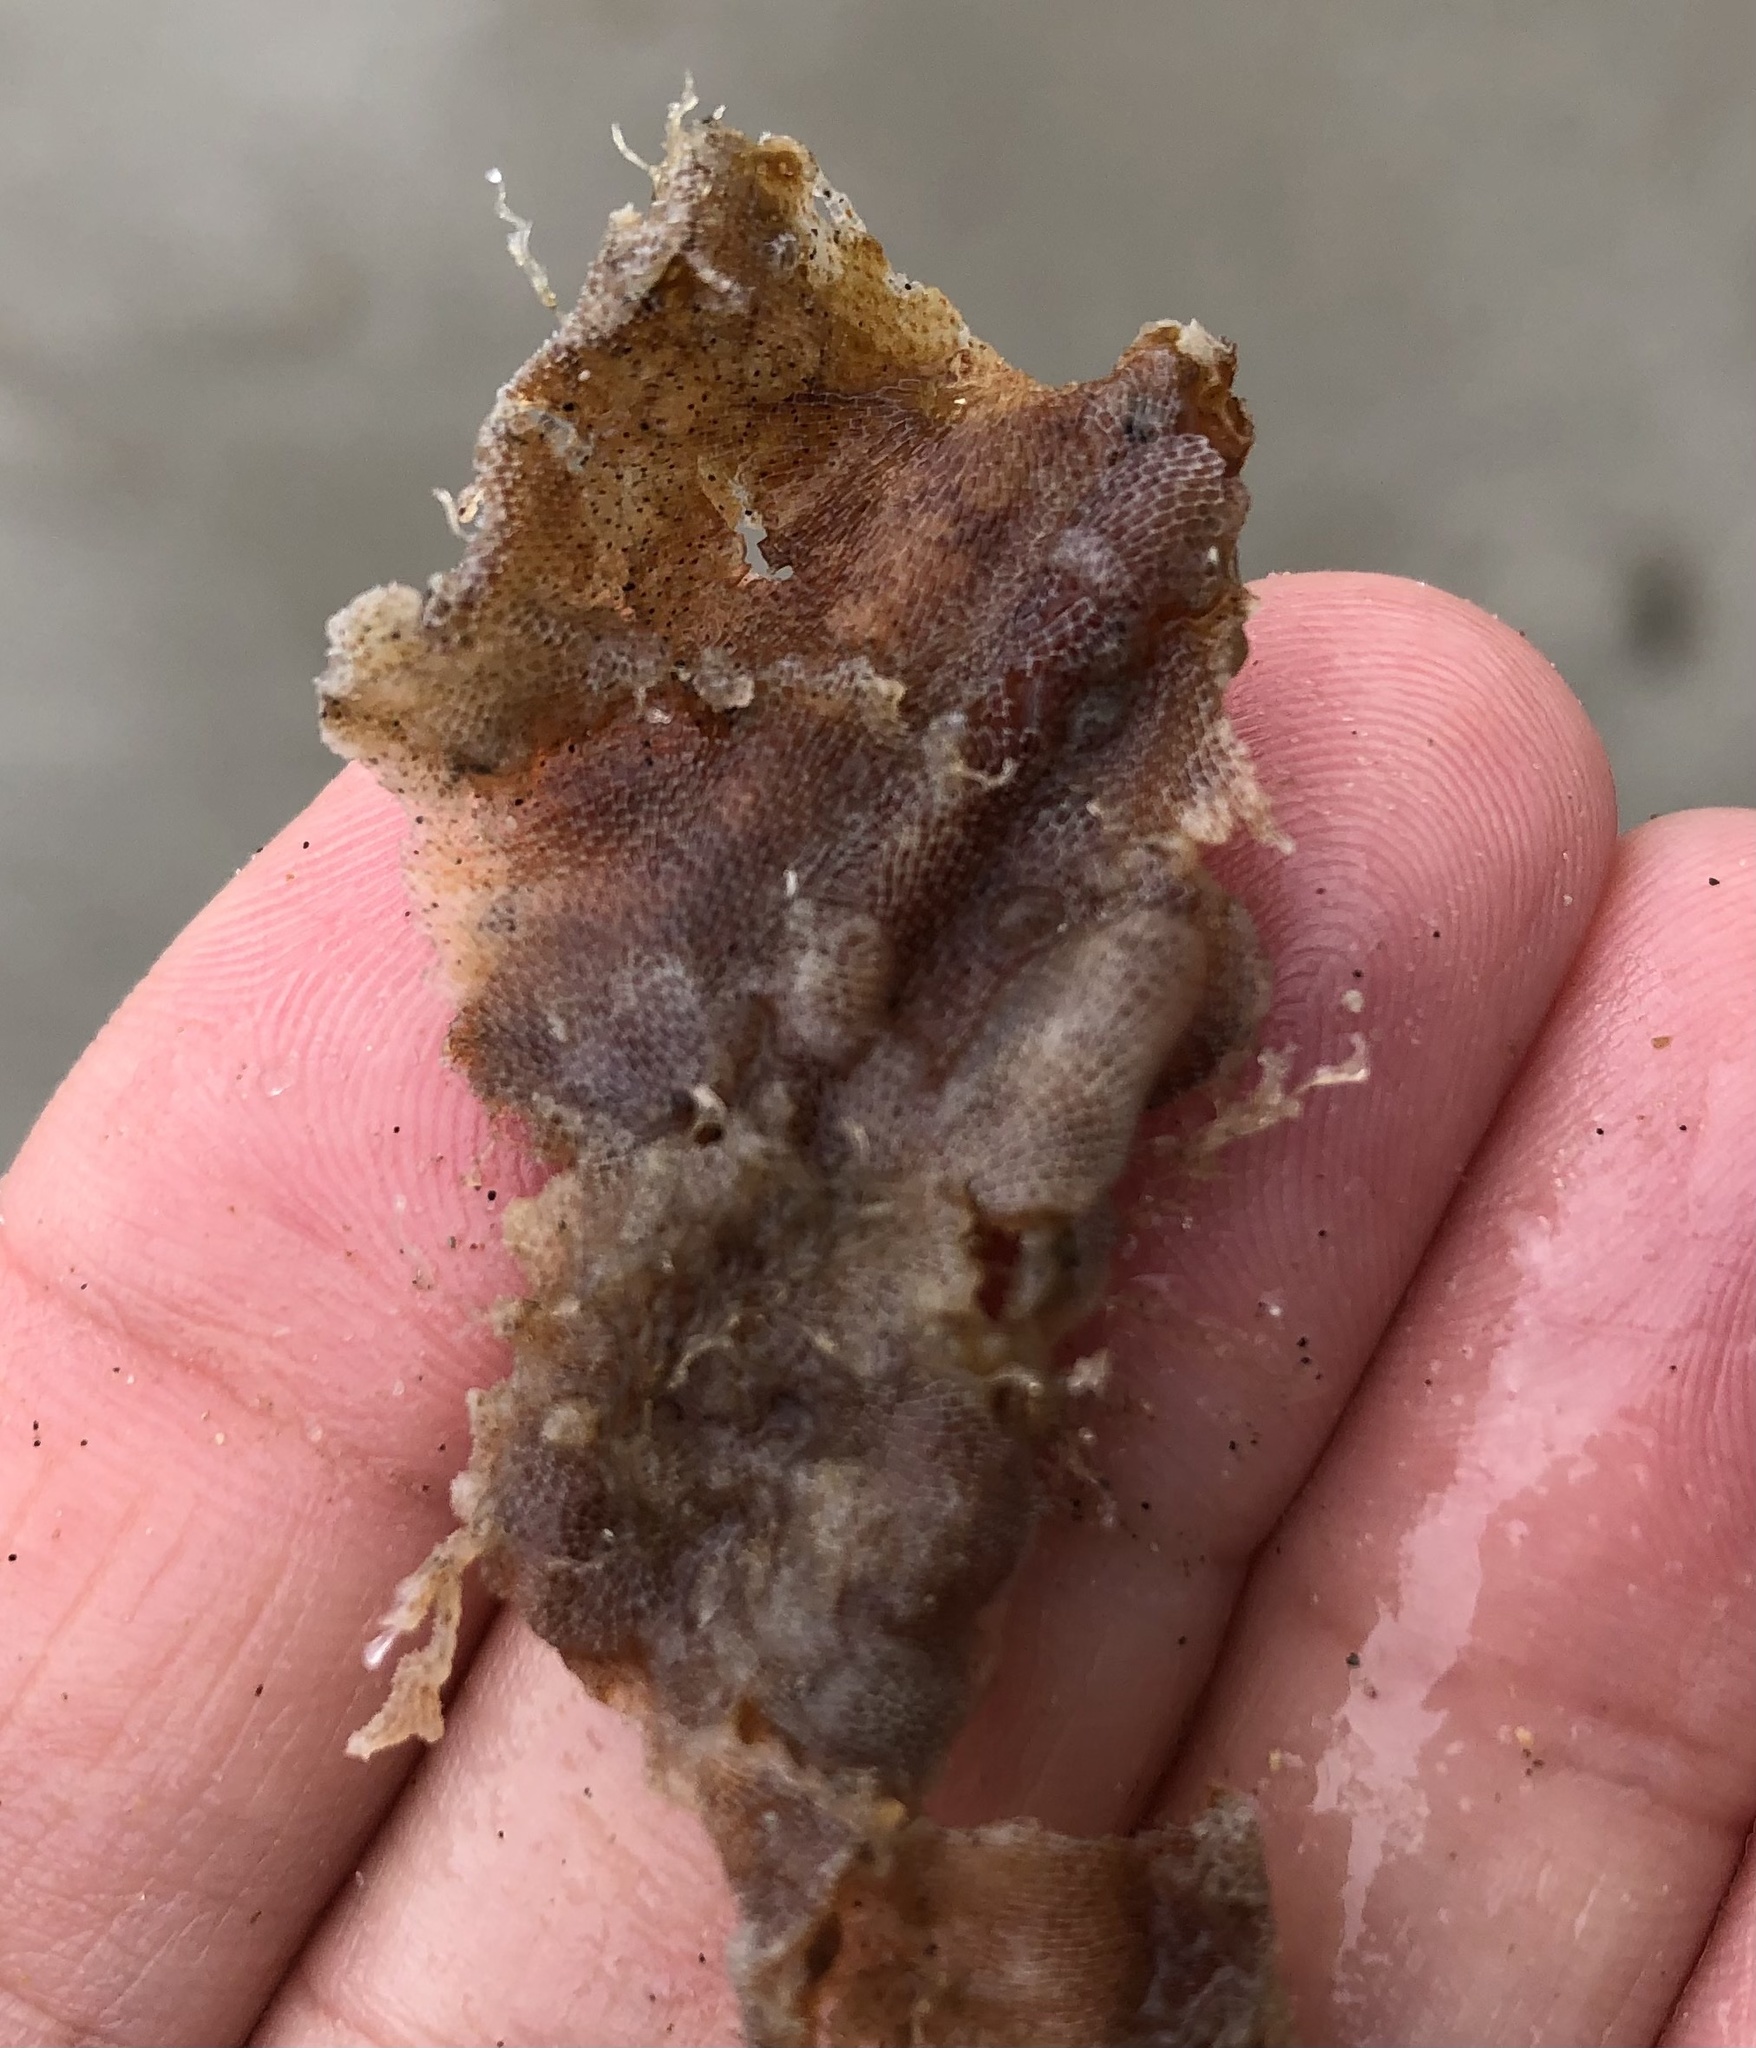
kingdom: Animalia
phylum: Bryozoa
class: Gymnolaemata
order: Cheilostomatida
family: Membraniporidae
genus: Membranipora
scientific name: Membranipora membranacea
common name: Sea mat
